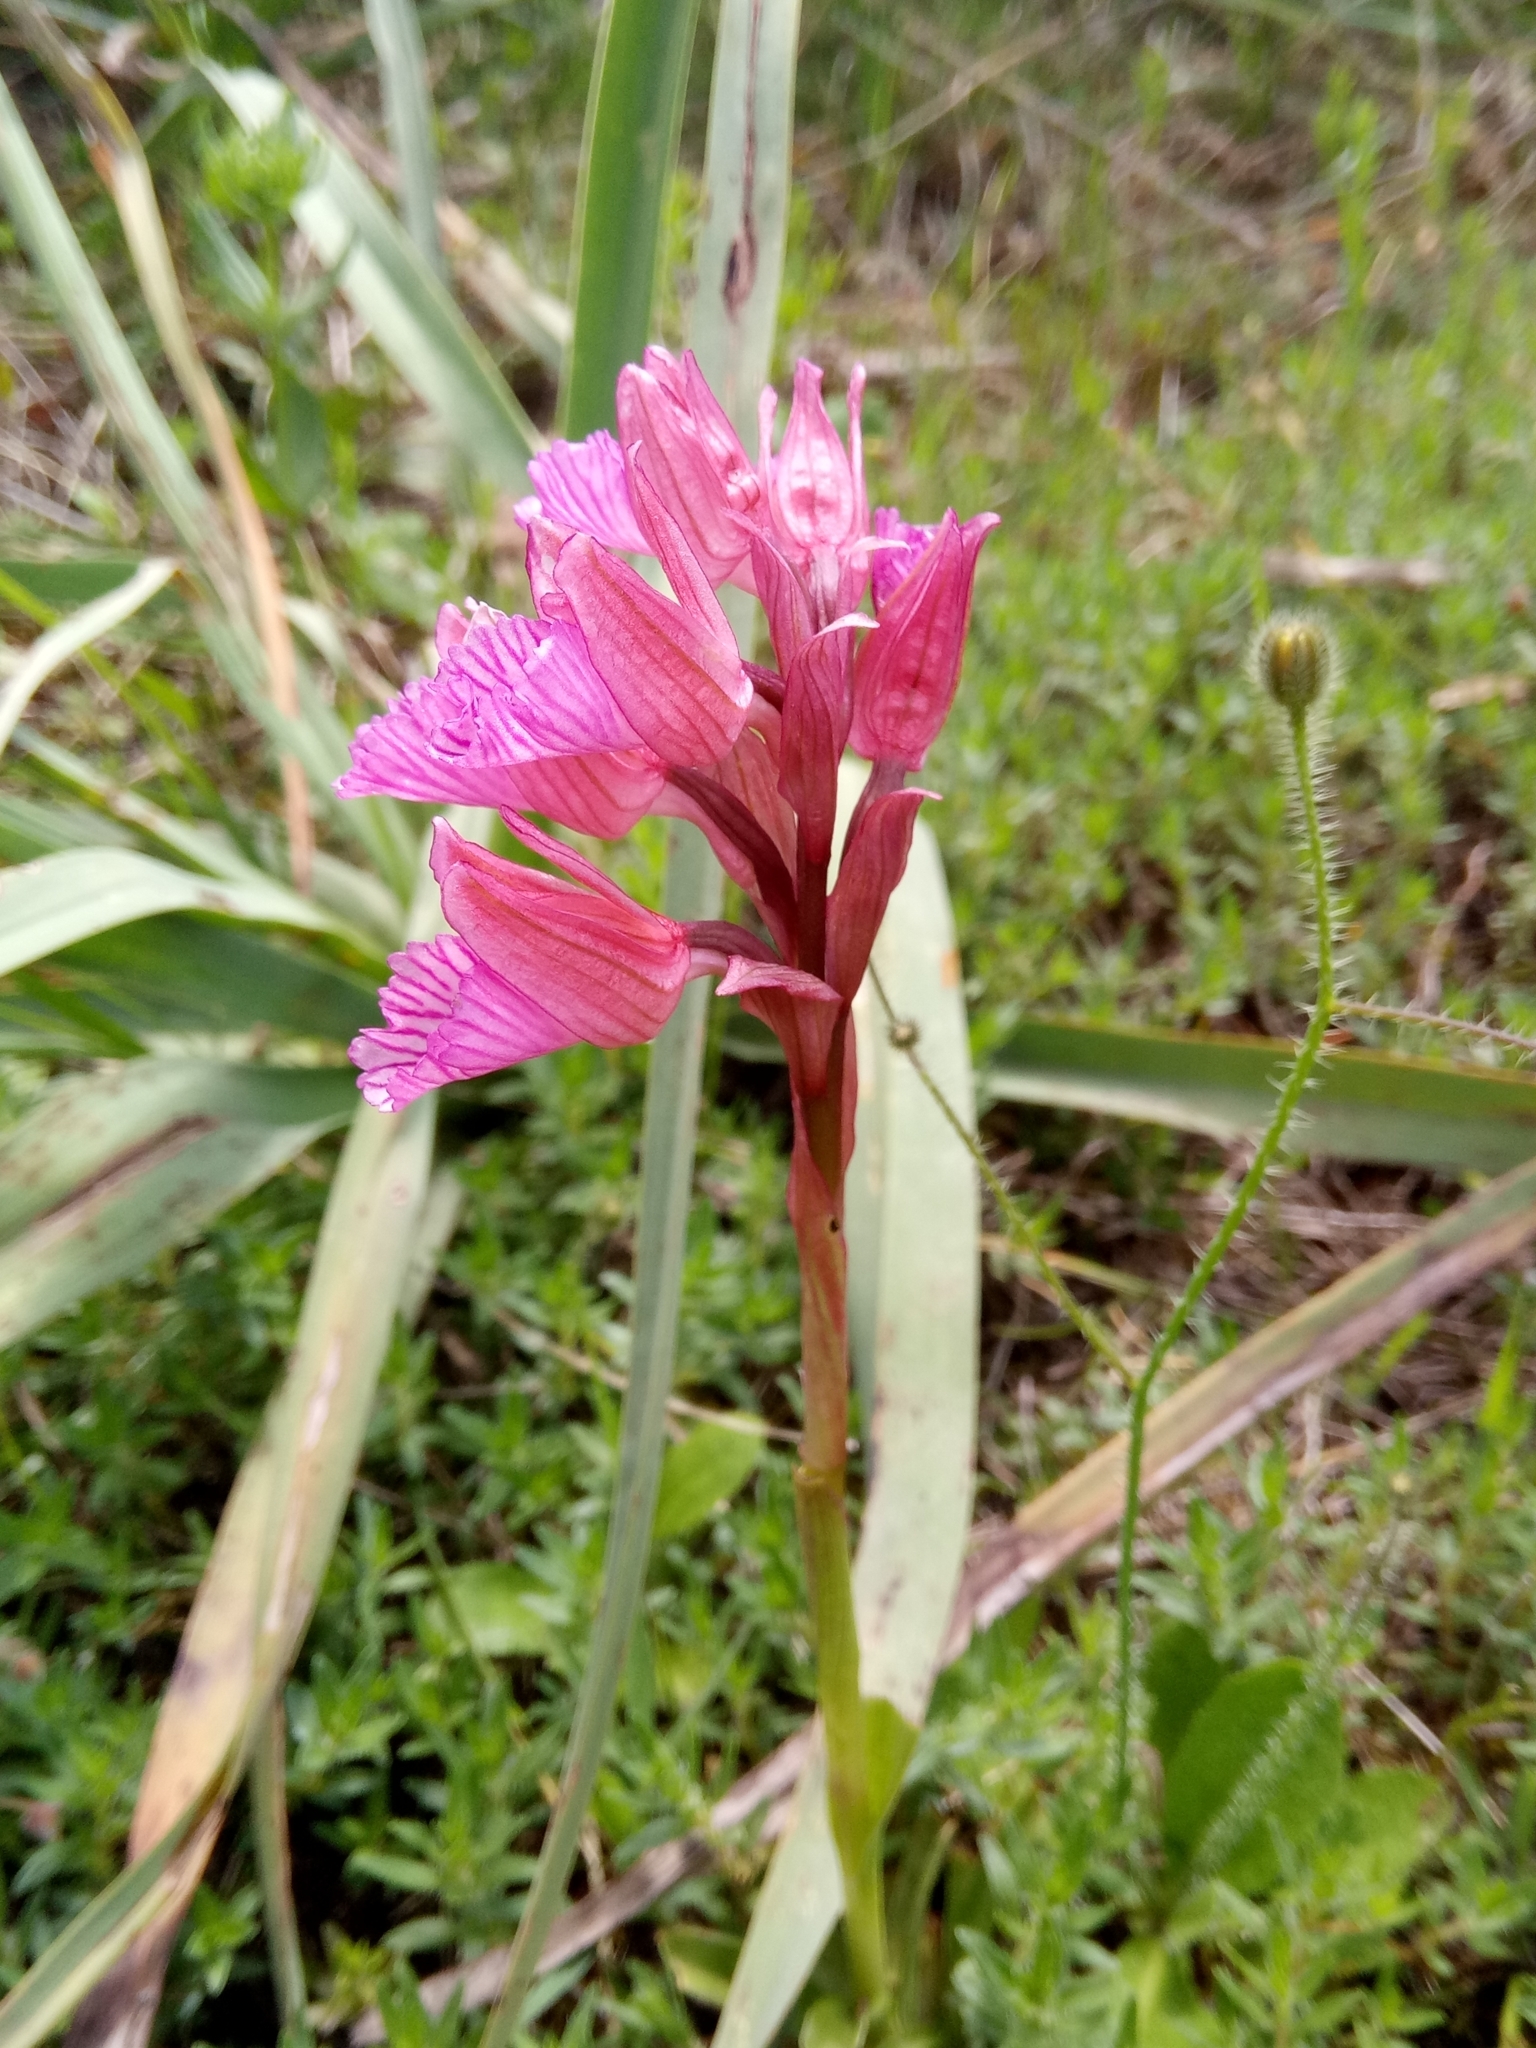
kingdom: Plantae
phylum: Tracheophyta
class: Liliopsida
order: Asparagales
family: Orchidaceae
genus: Anacamptis
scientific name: Anacamptis papilionacea
